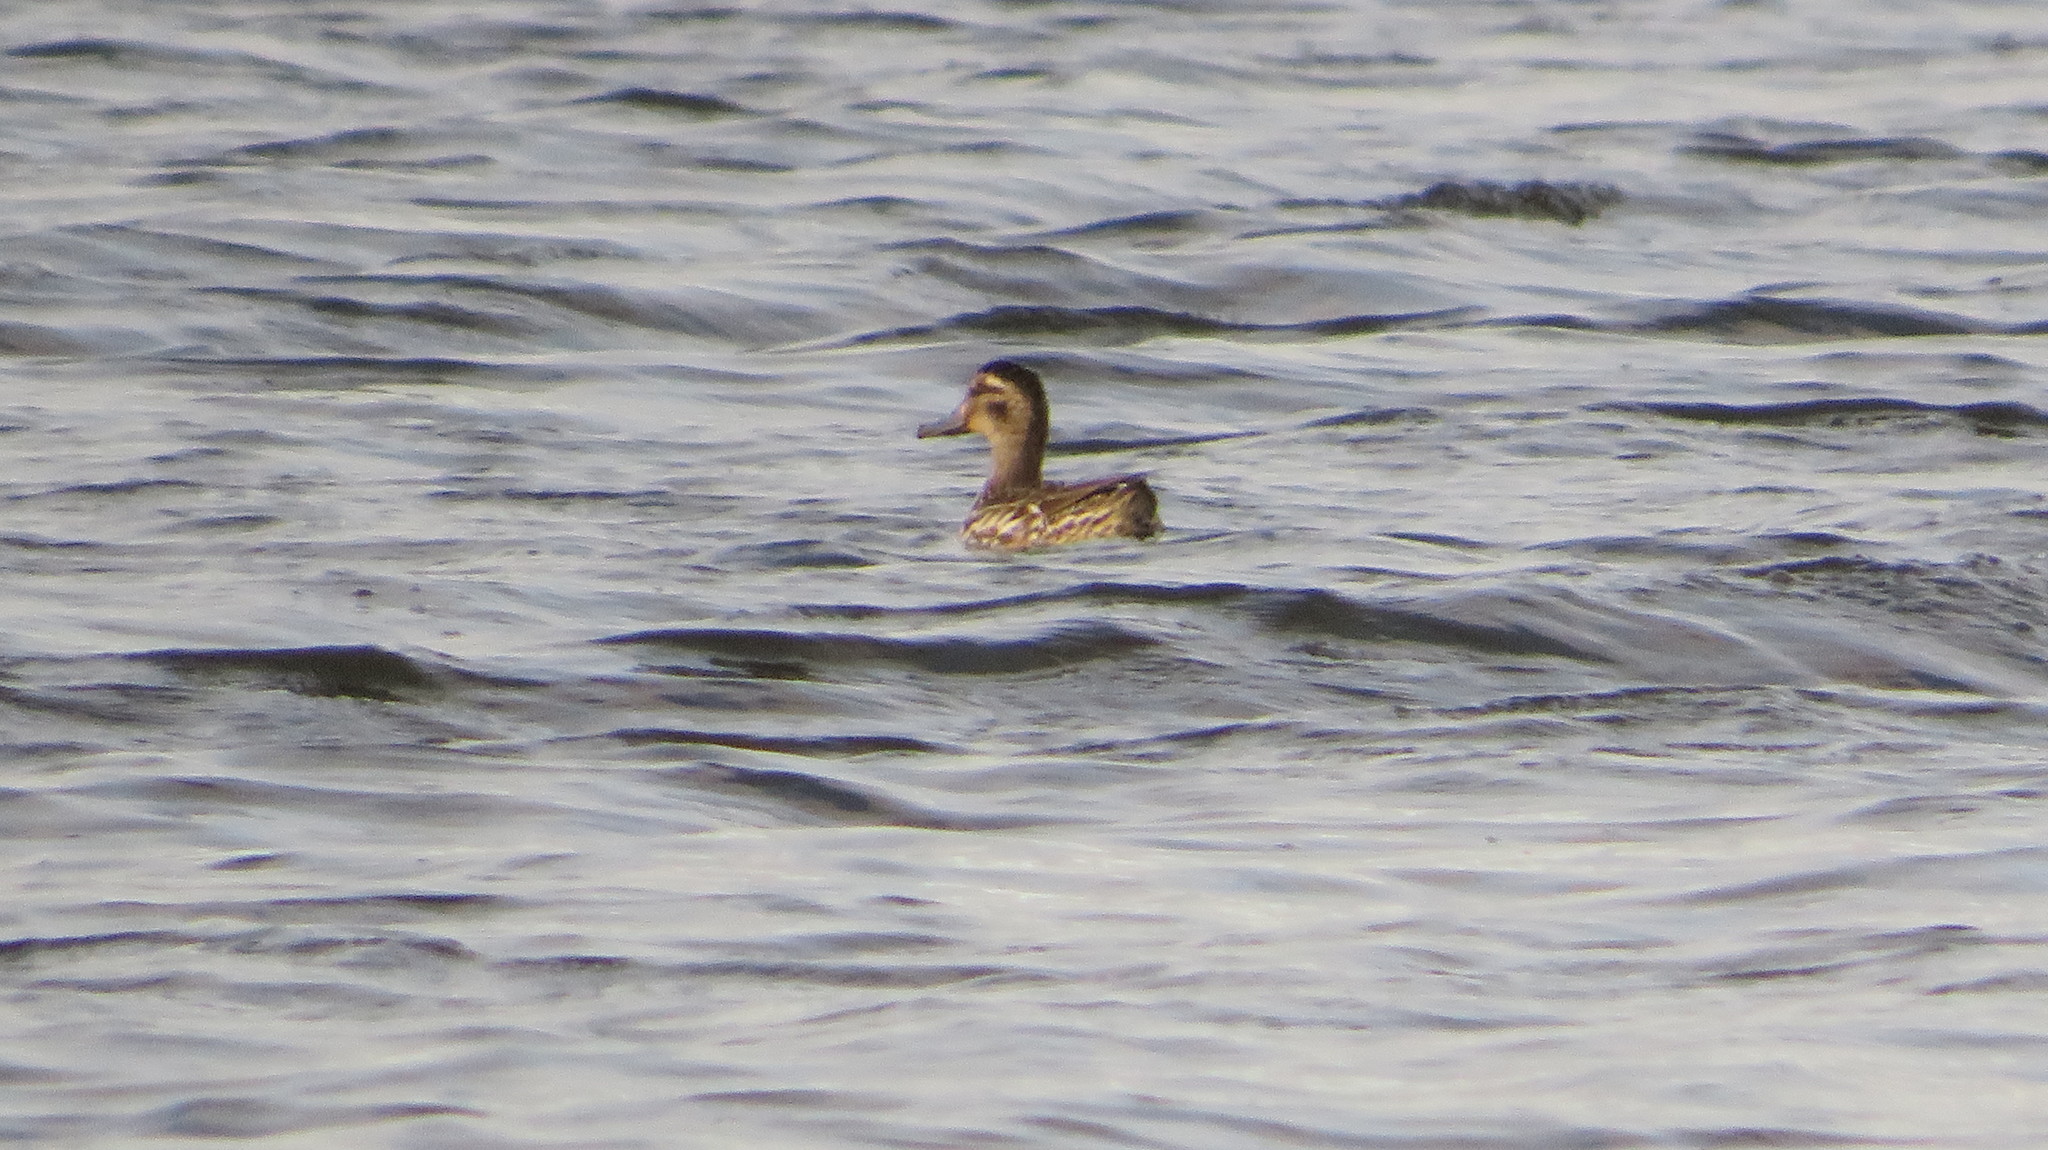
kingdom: Animalia
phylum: Chordata
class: Aves
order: Anseriformes
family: Anatidae
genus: Spatula
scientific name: Spatula querquedula
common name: Garganey
